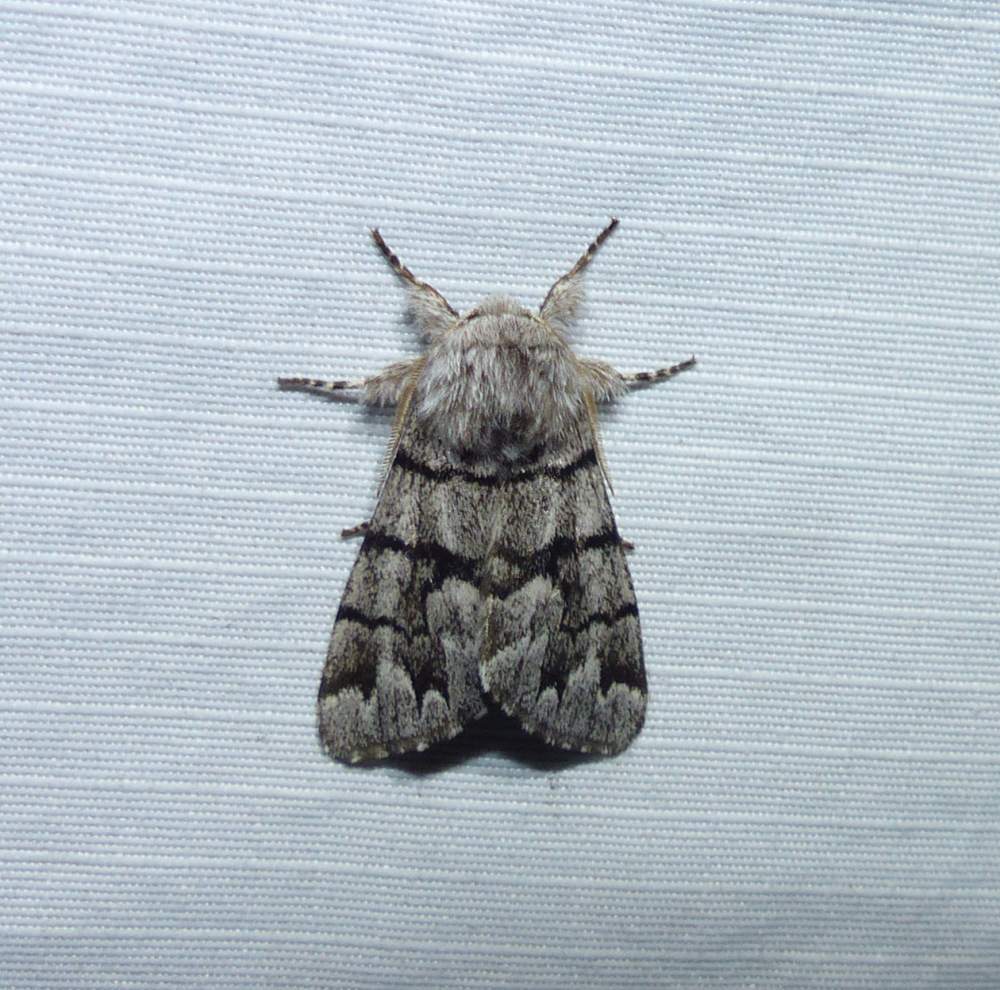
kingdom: Animalia
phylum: Arthropoda
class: Insecta
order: Lepidoptera
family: Noctuidae
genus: Panthea
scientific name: Panthea furcilla
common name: Eastern panthea moth
